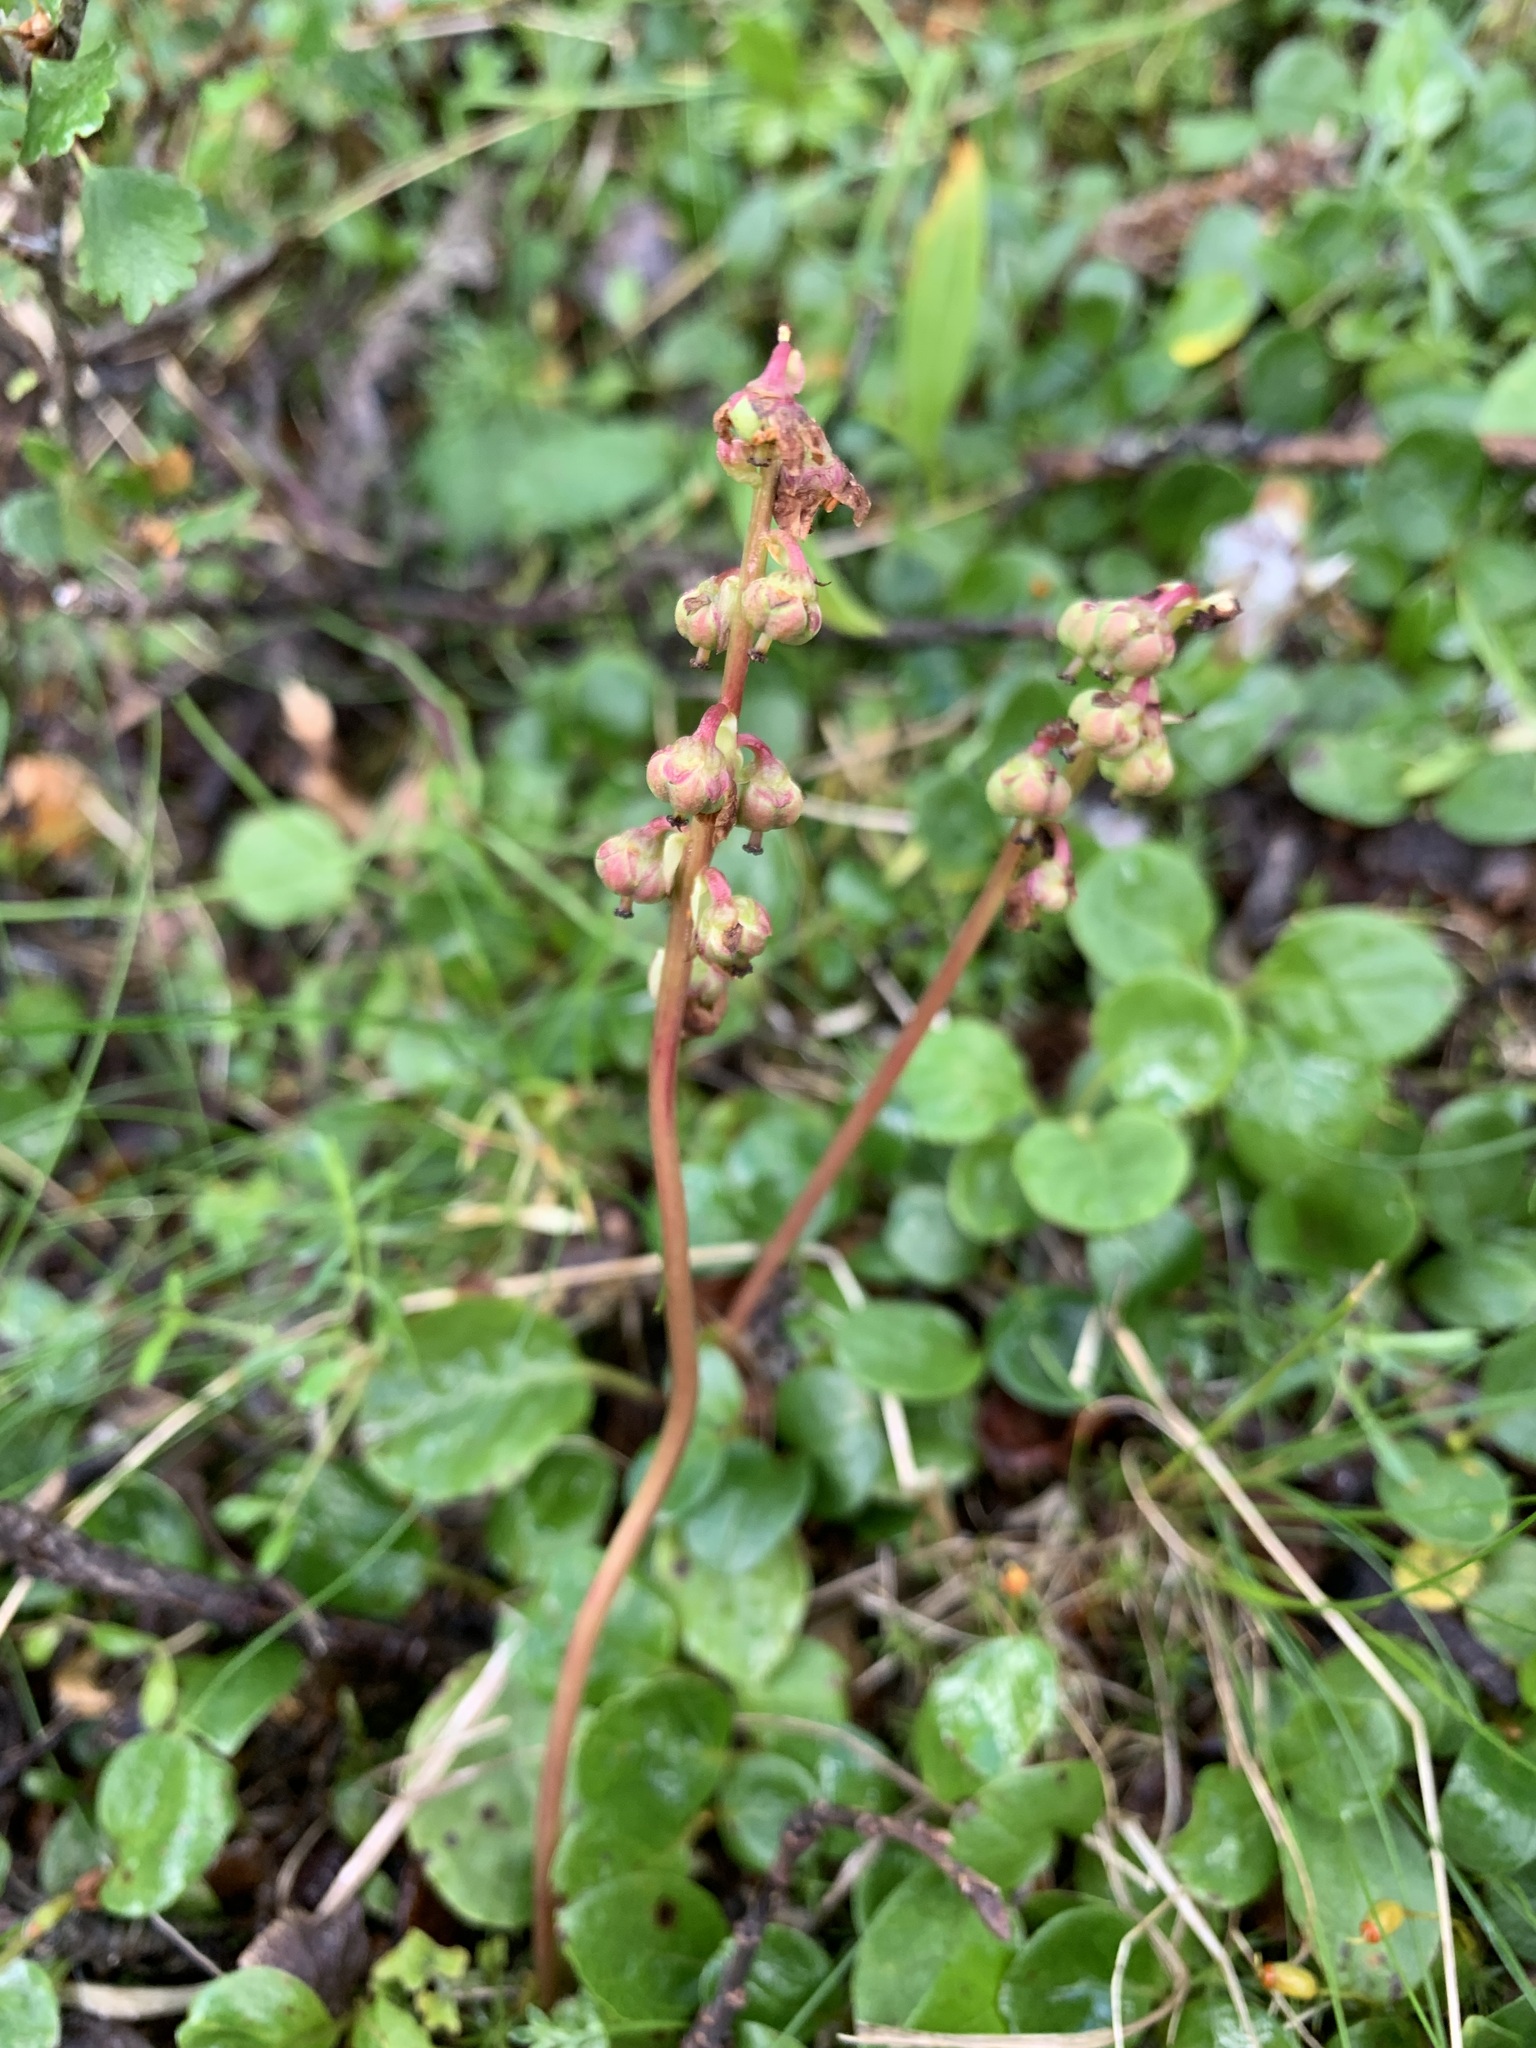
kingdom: Plantae
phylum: Tracheophyta
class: Magnoliopsida
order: Ericales
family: Ericaceae
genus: Pyrola
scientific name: Pyrola minor
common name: Common wintergreen
